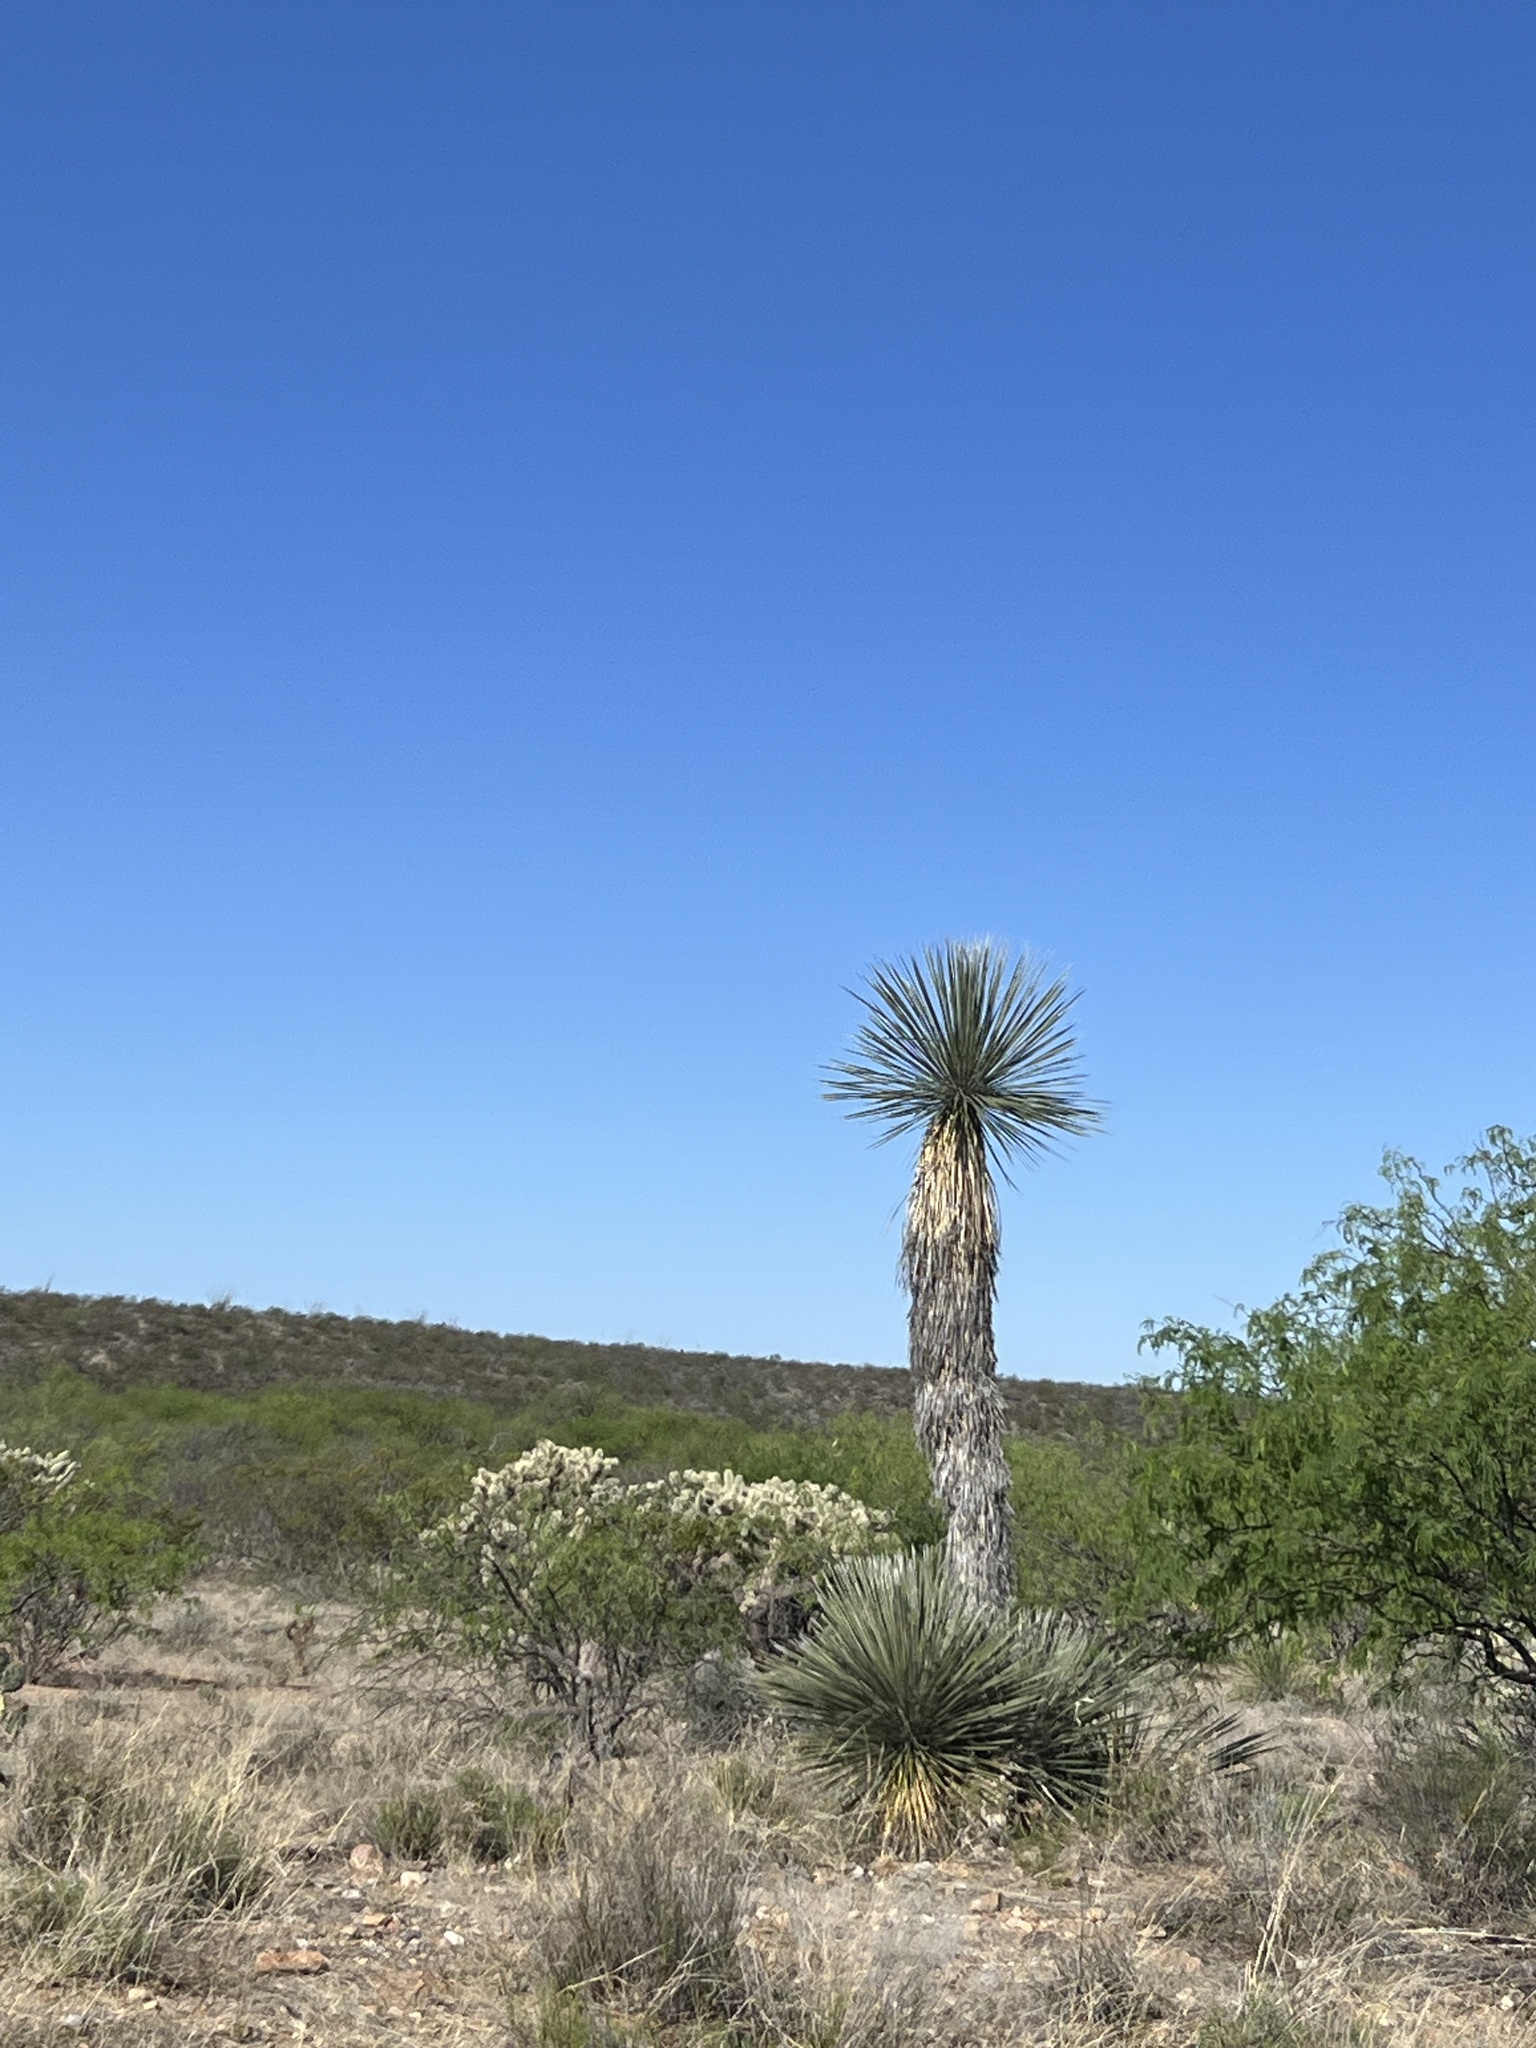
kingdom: Plantae
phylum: Tracheophyta
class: Liliopsida
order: Asparagales
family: Asparagaceae
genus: Yucca
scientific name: Yucca elata
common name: Palmella
